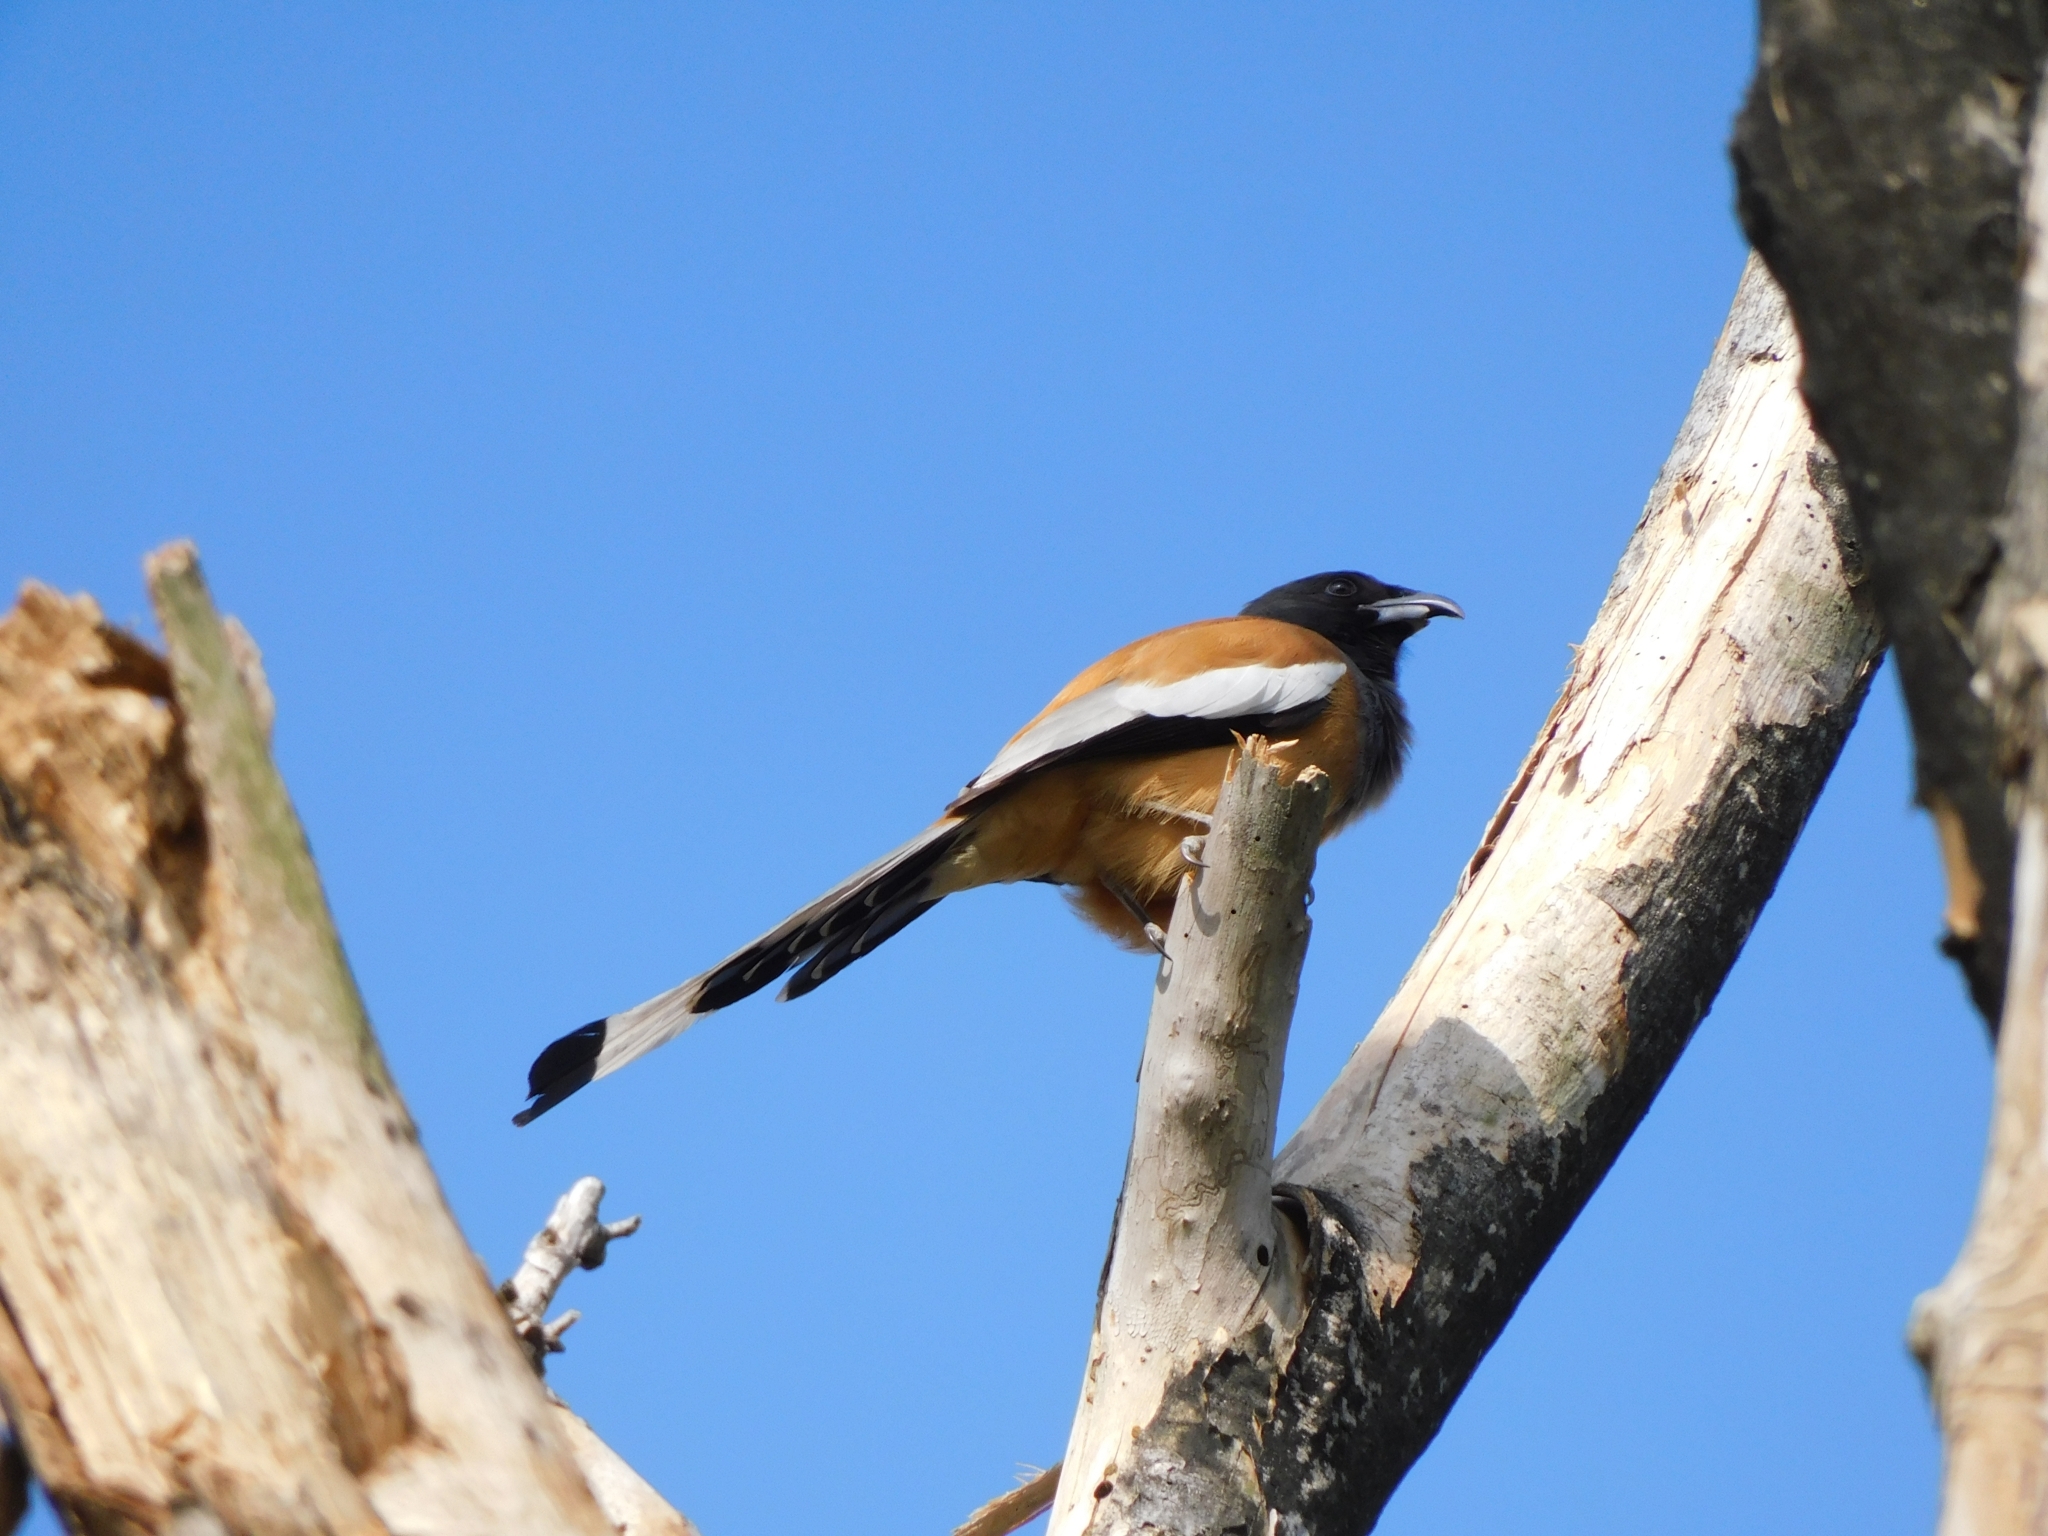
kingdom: Animalia
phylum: Chordata
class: Aves
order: Passeriformes
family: Corvidae
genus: Dendrocitta
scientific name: Dendrocitta vagabunda
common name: Rufous treepie
